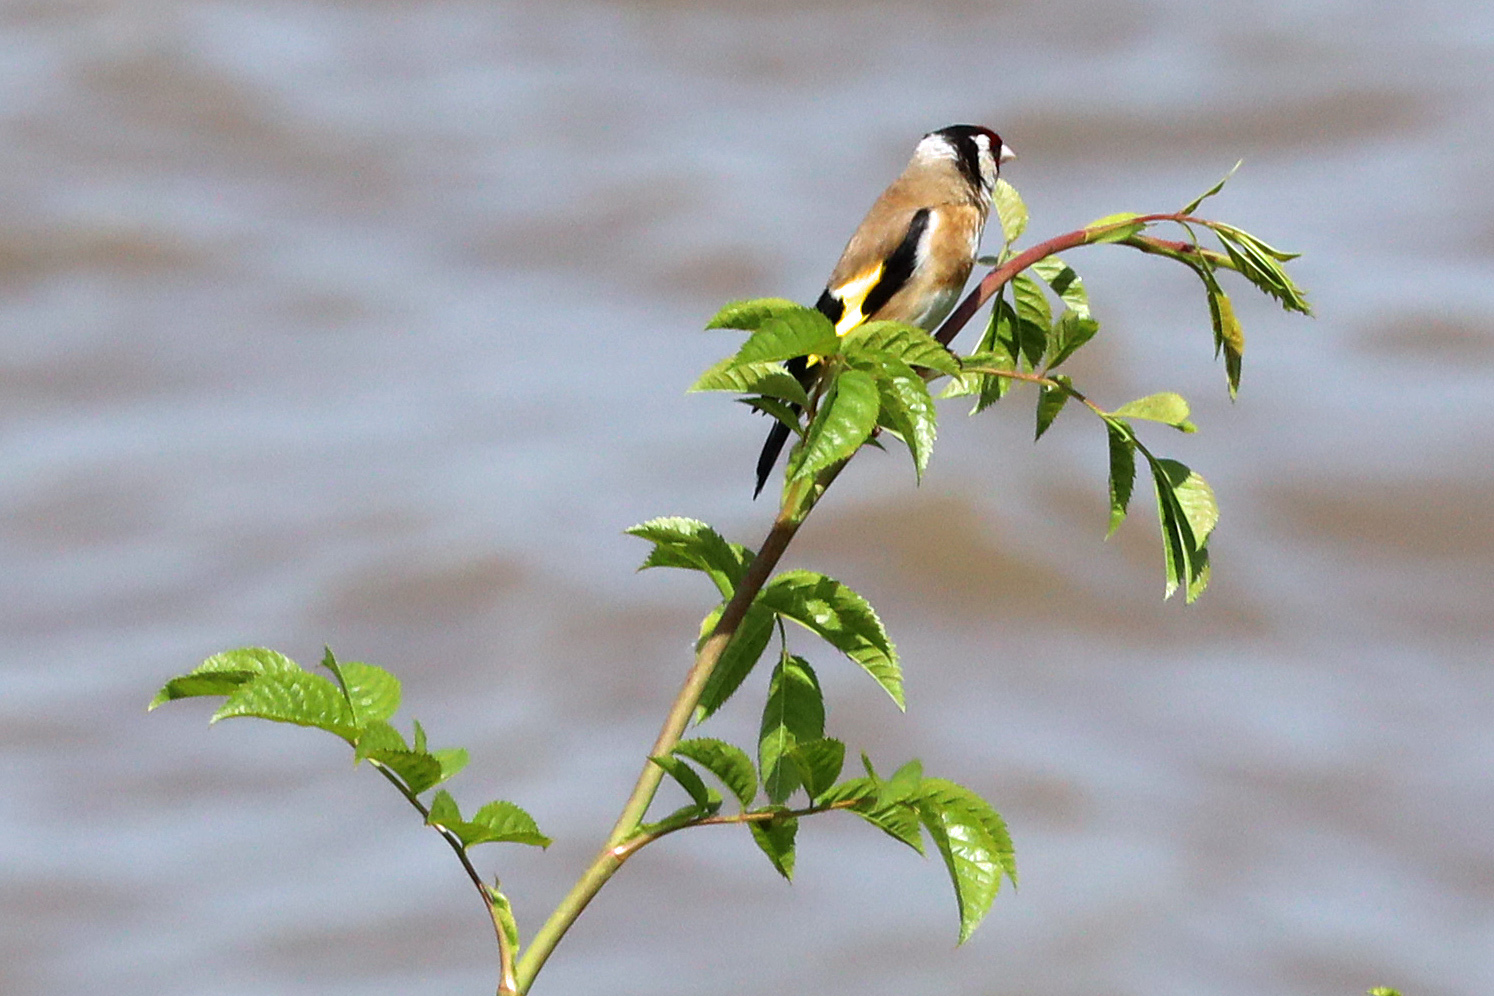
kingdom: Animalia
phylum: Chordata
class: Aves
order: Passeriformes
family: Fringillidae
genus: Carduelis
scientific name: Carduelis carduelis
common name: European goldfinch
